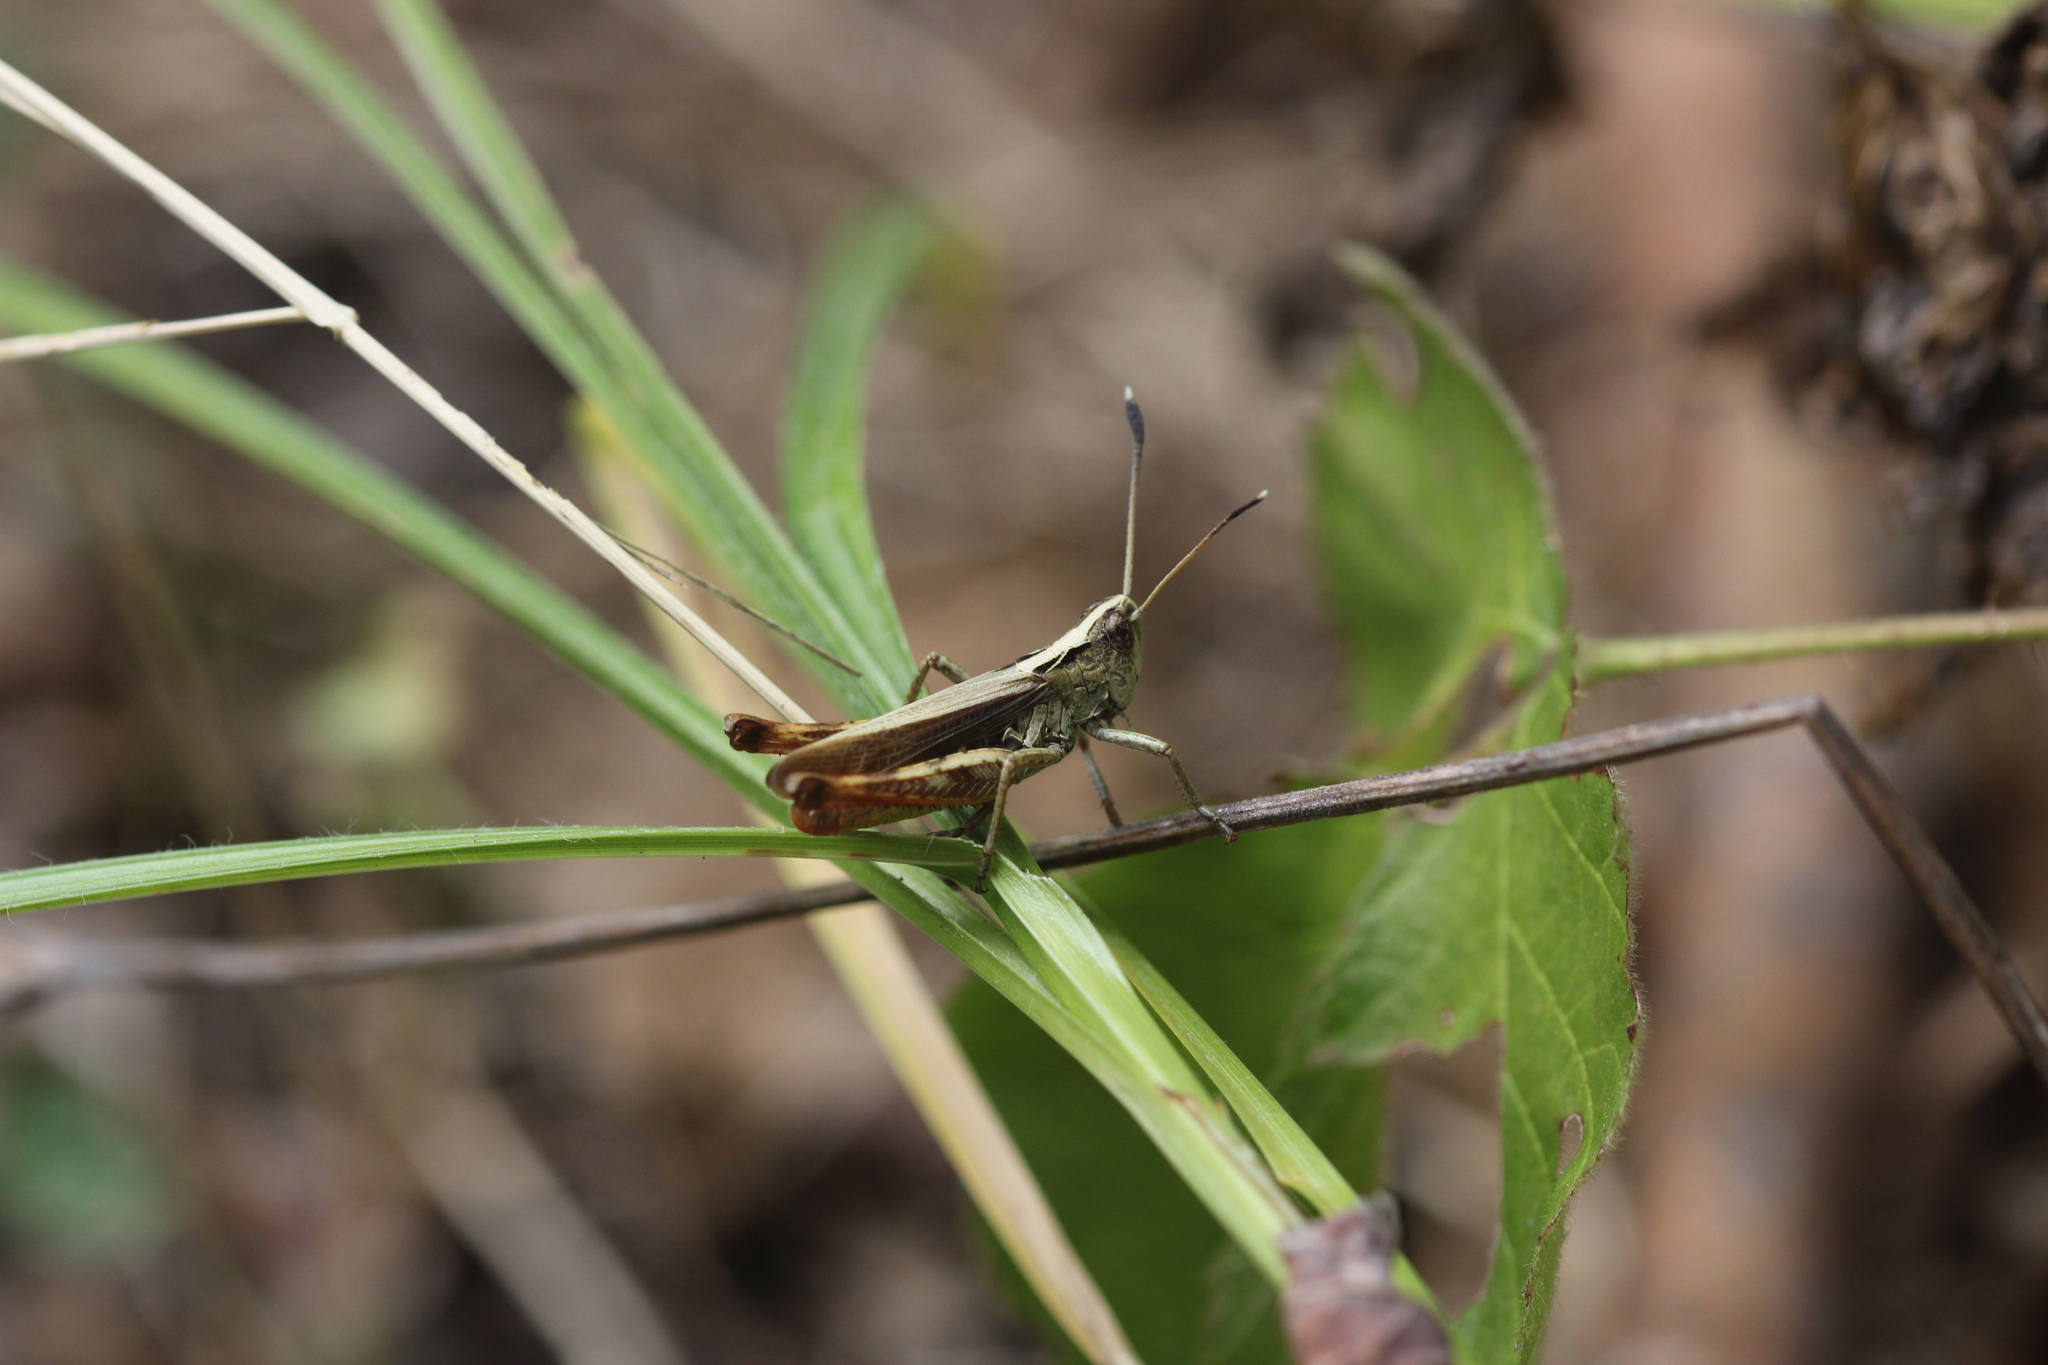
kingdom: Animalia
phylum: Arthropoda
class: Insecta
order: Orthoptera
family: Acrididae
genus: Gomphocerippus
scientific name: Gomphocerippus rufus
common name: Rufous grasshopper
